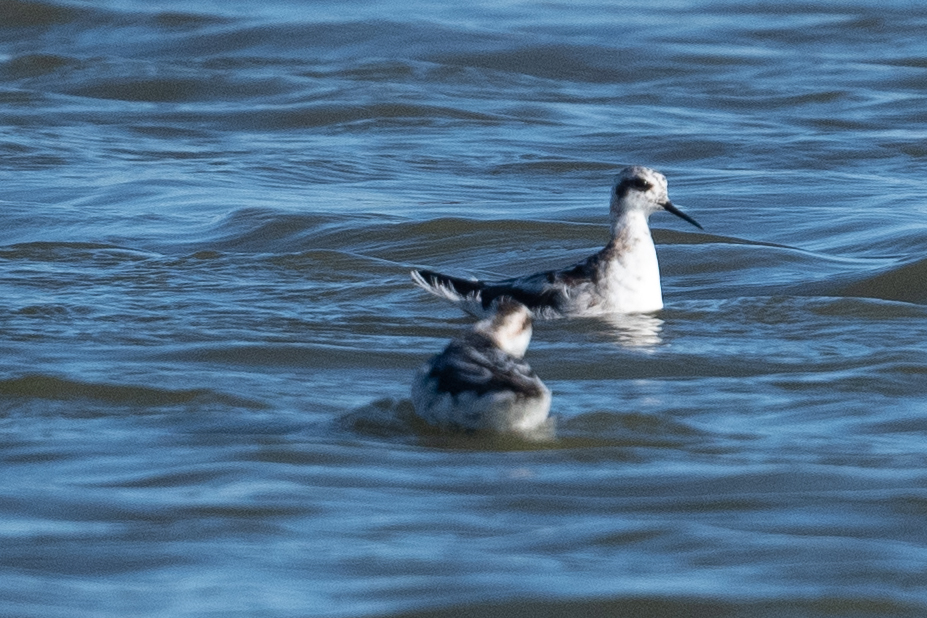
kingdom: Animalia
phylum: Chordata
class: Aves
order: Charadriiformes
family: Scolopacidae
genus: Phalaropus
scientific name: Phalaropus lobatus
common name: Red-necked phalarope
